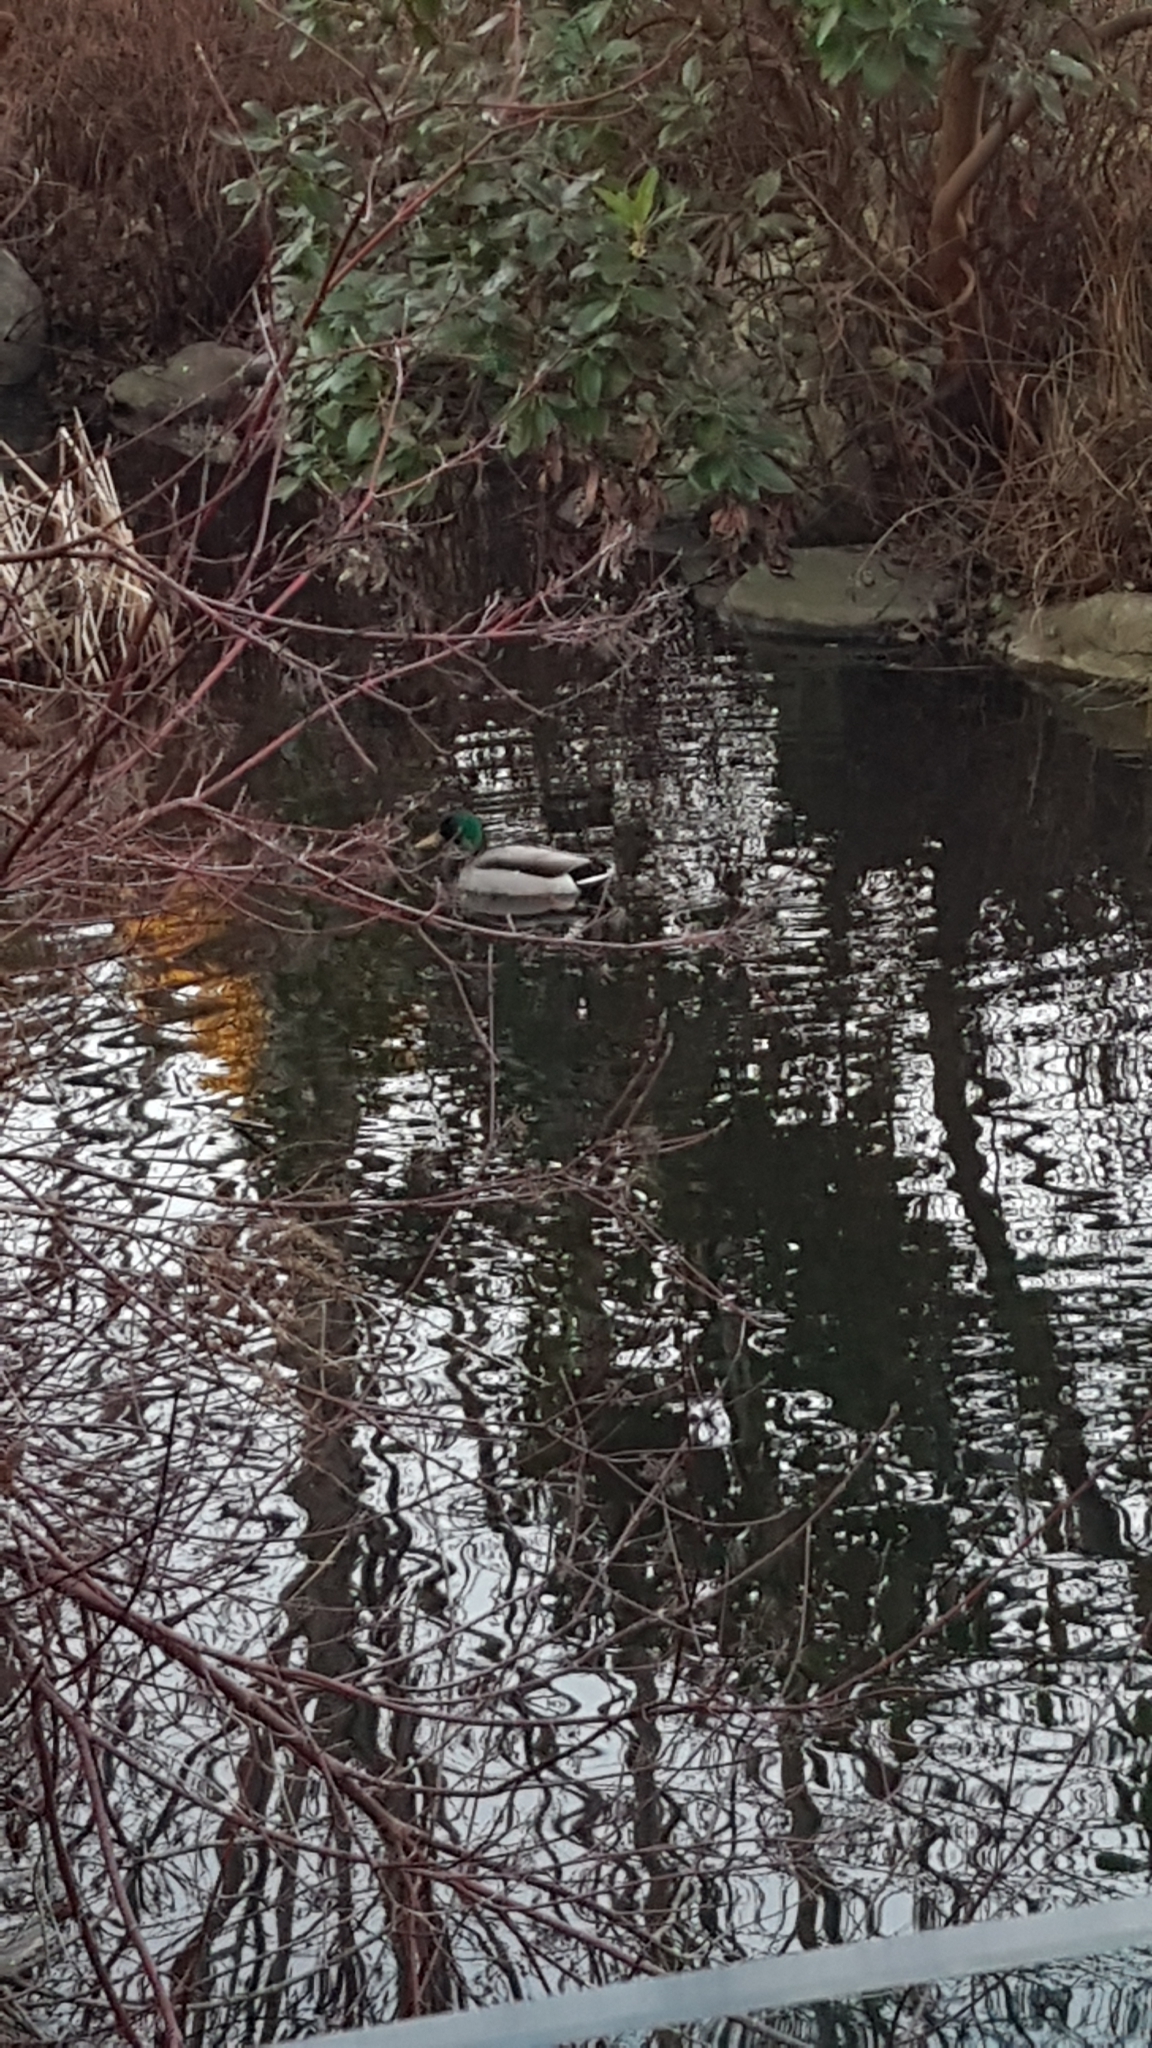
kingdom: Animalia
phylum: Chordata
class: Aves
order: Anseriformes
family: Anatidae
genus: Anas
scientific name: Anas platyrhynchos
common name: Mallard
